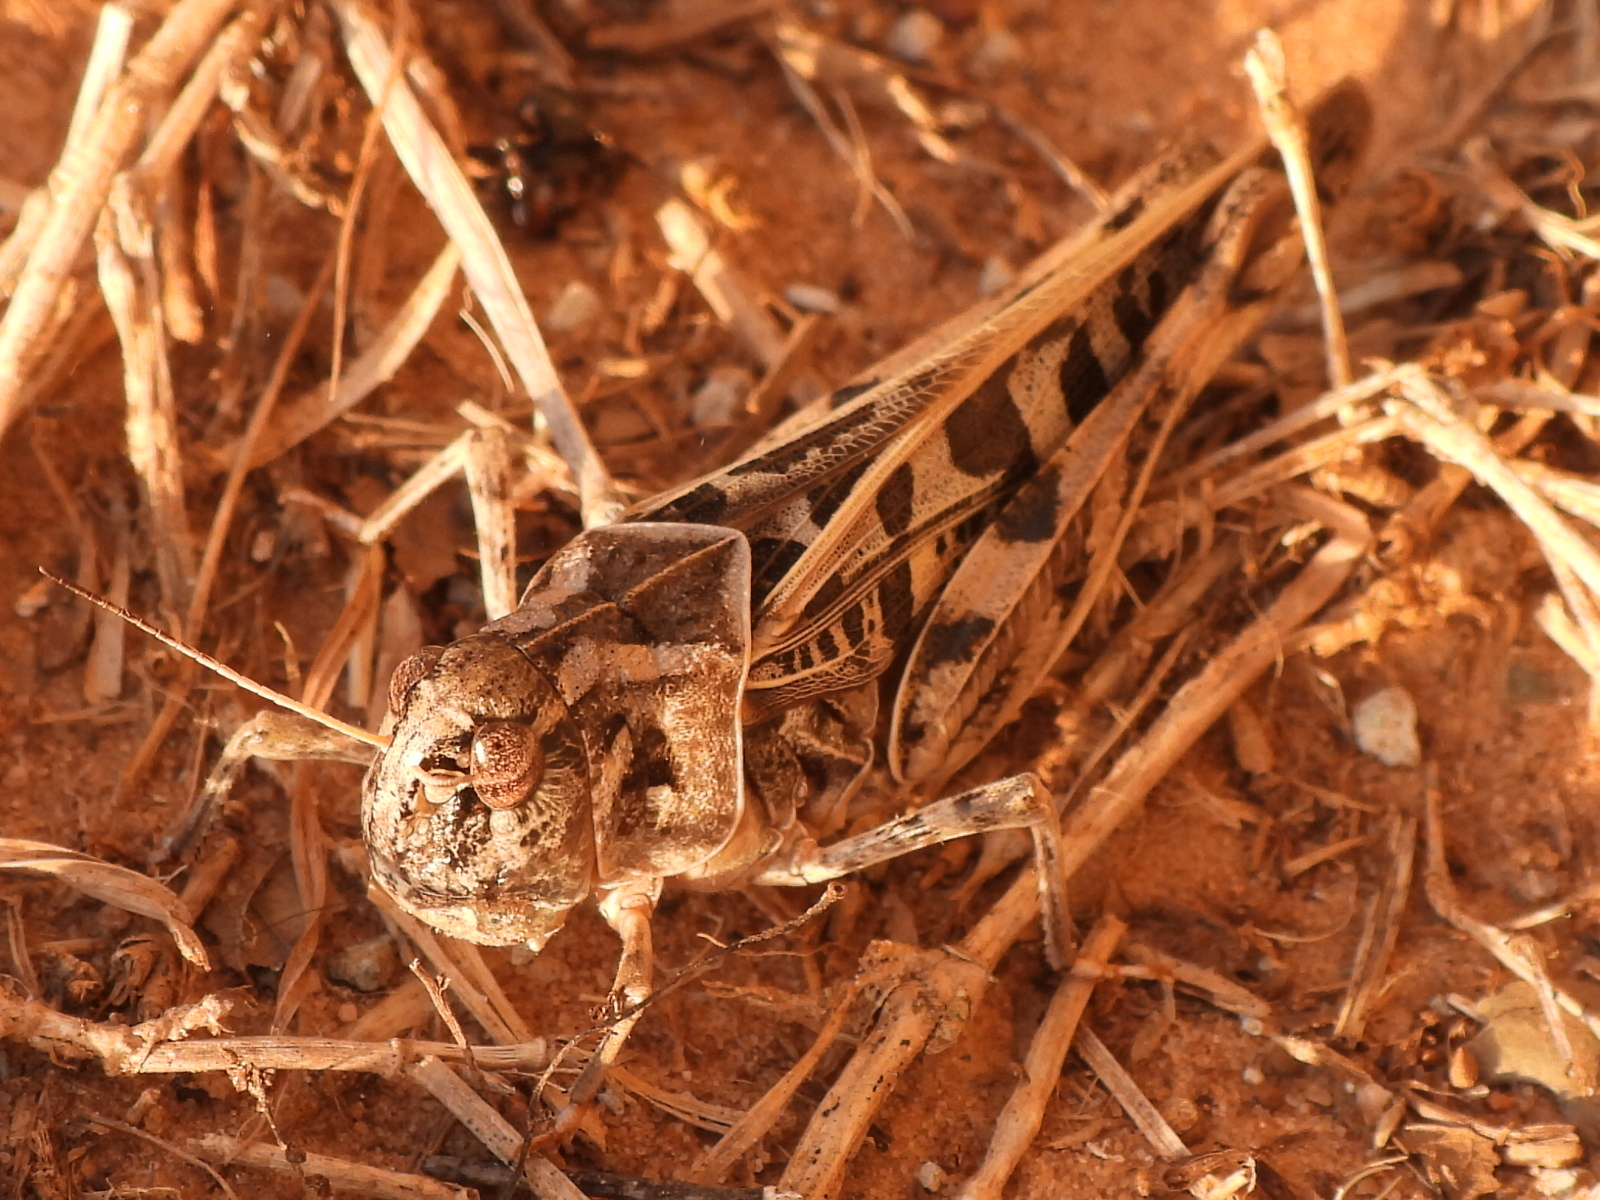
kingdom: Animalia
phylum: Arthropoda
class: Insecta
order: Orthoptera
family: Acrididae
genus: Hippiscus
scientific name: Hippiscus ocelote
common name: Wrinkled grasshopper
